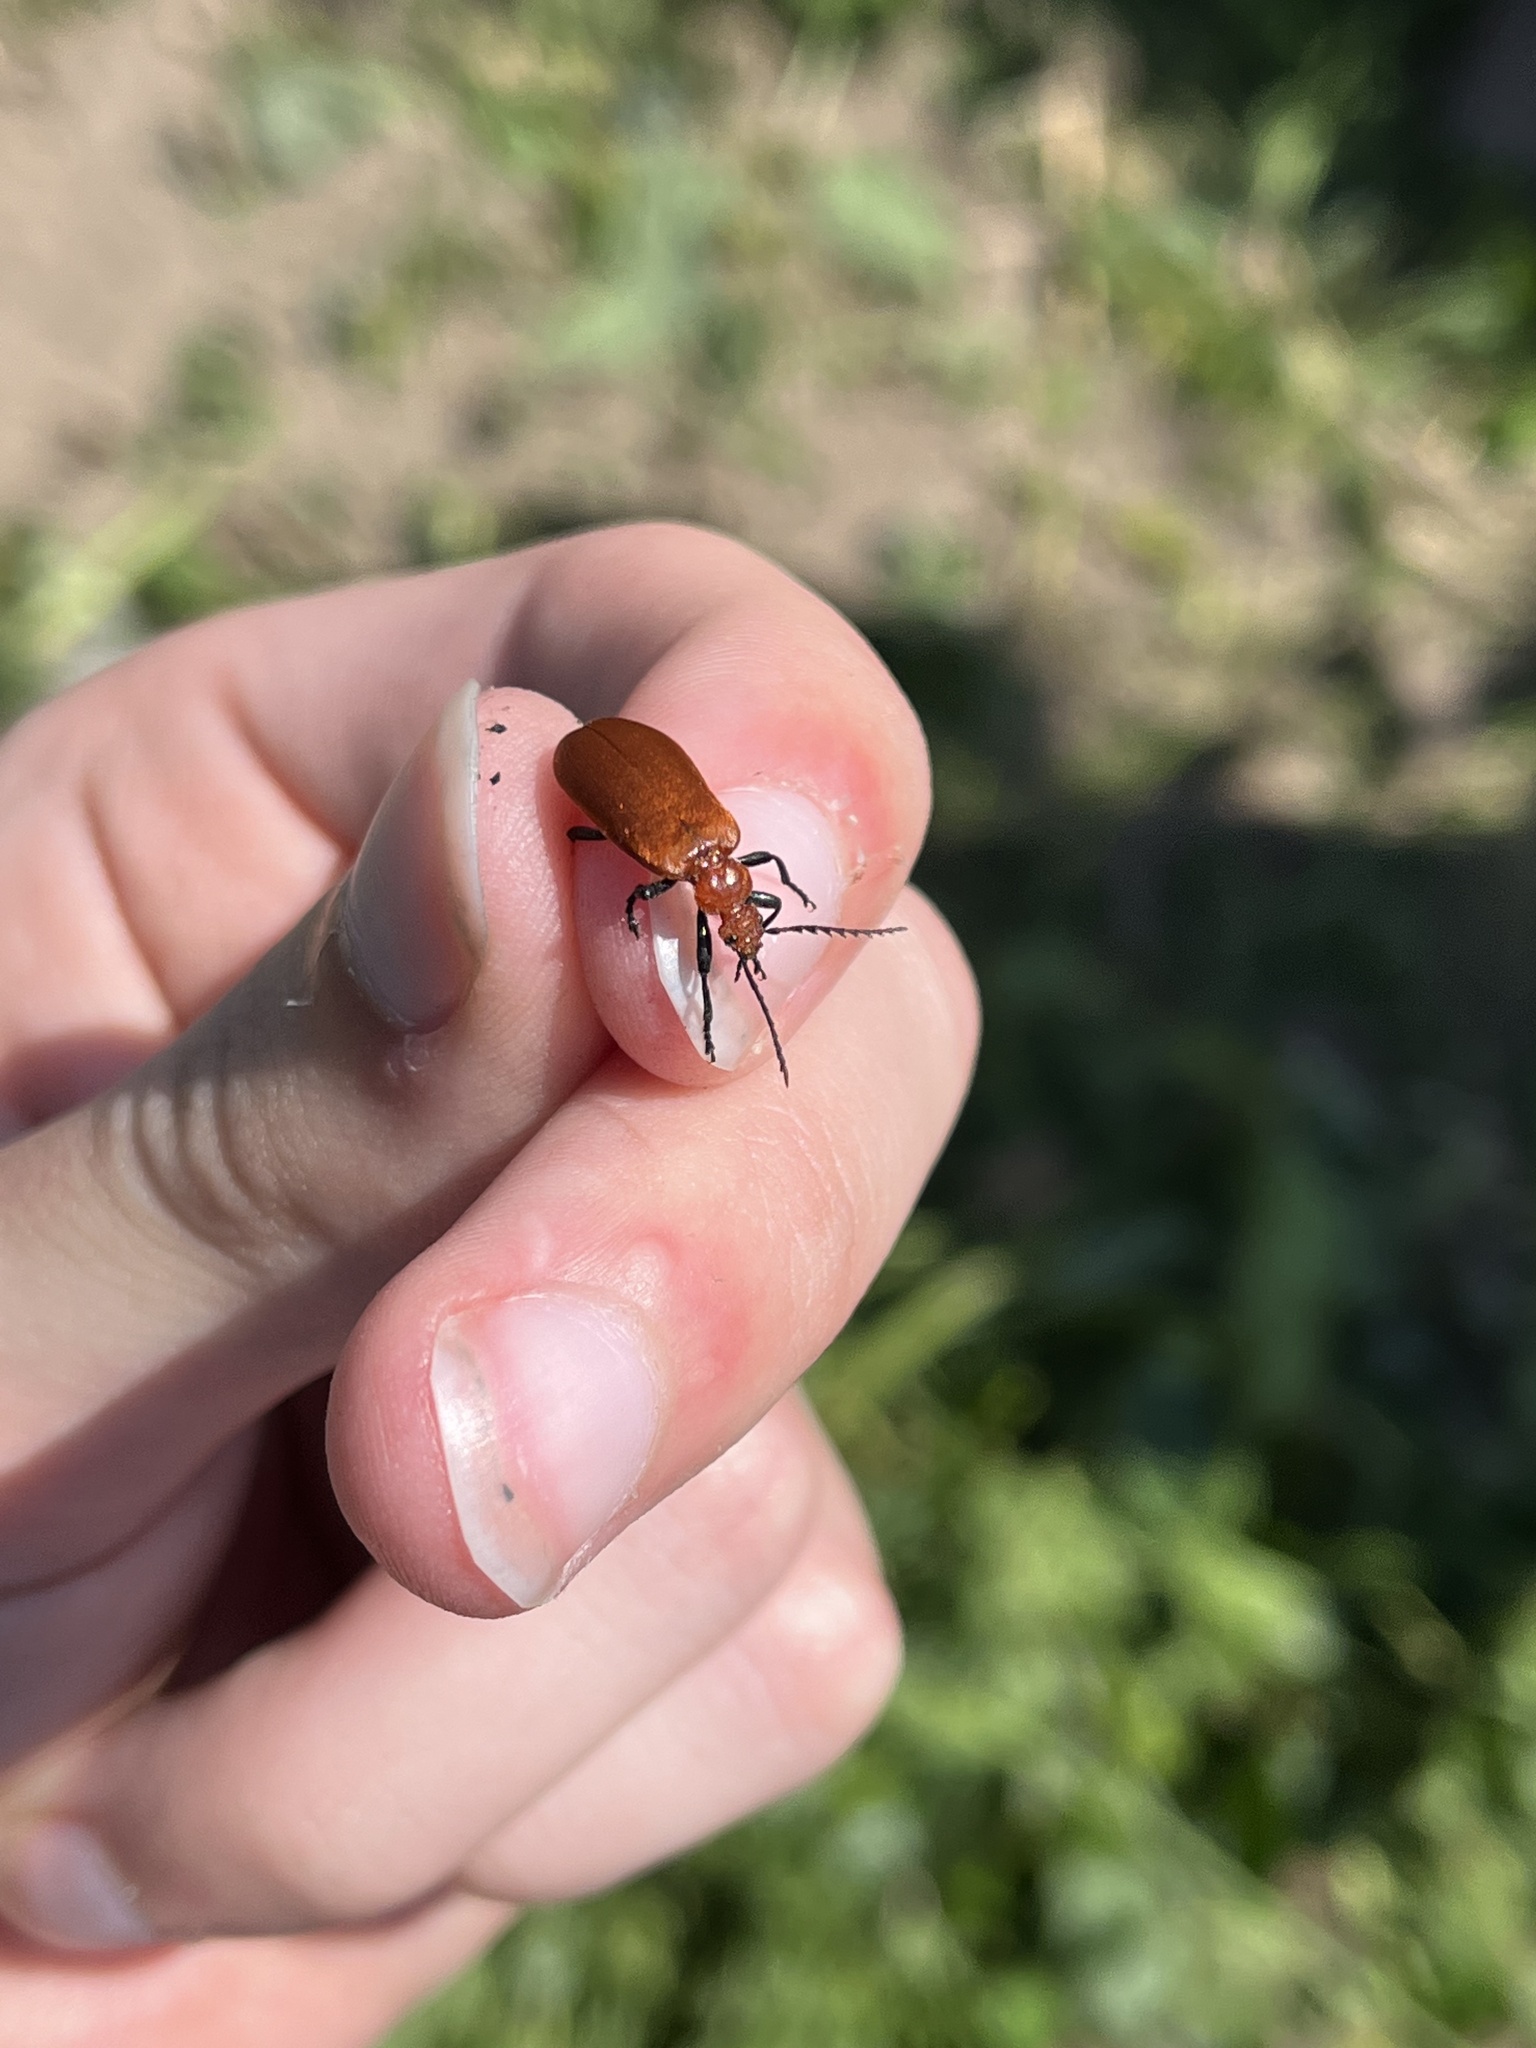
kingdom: Animalia
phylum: Arthropoda
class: Insecta
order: Coleoptera
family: Pyrochroidae
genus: Pyrochroa
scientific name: Pyrochroa serraticornis
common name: Red-headed cardinal beetle
